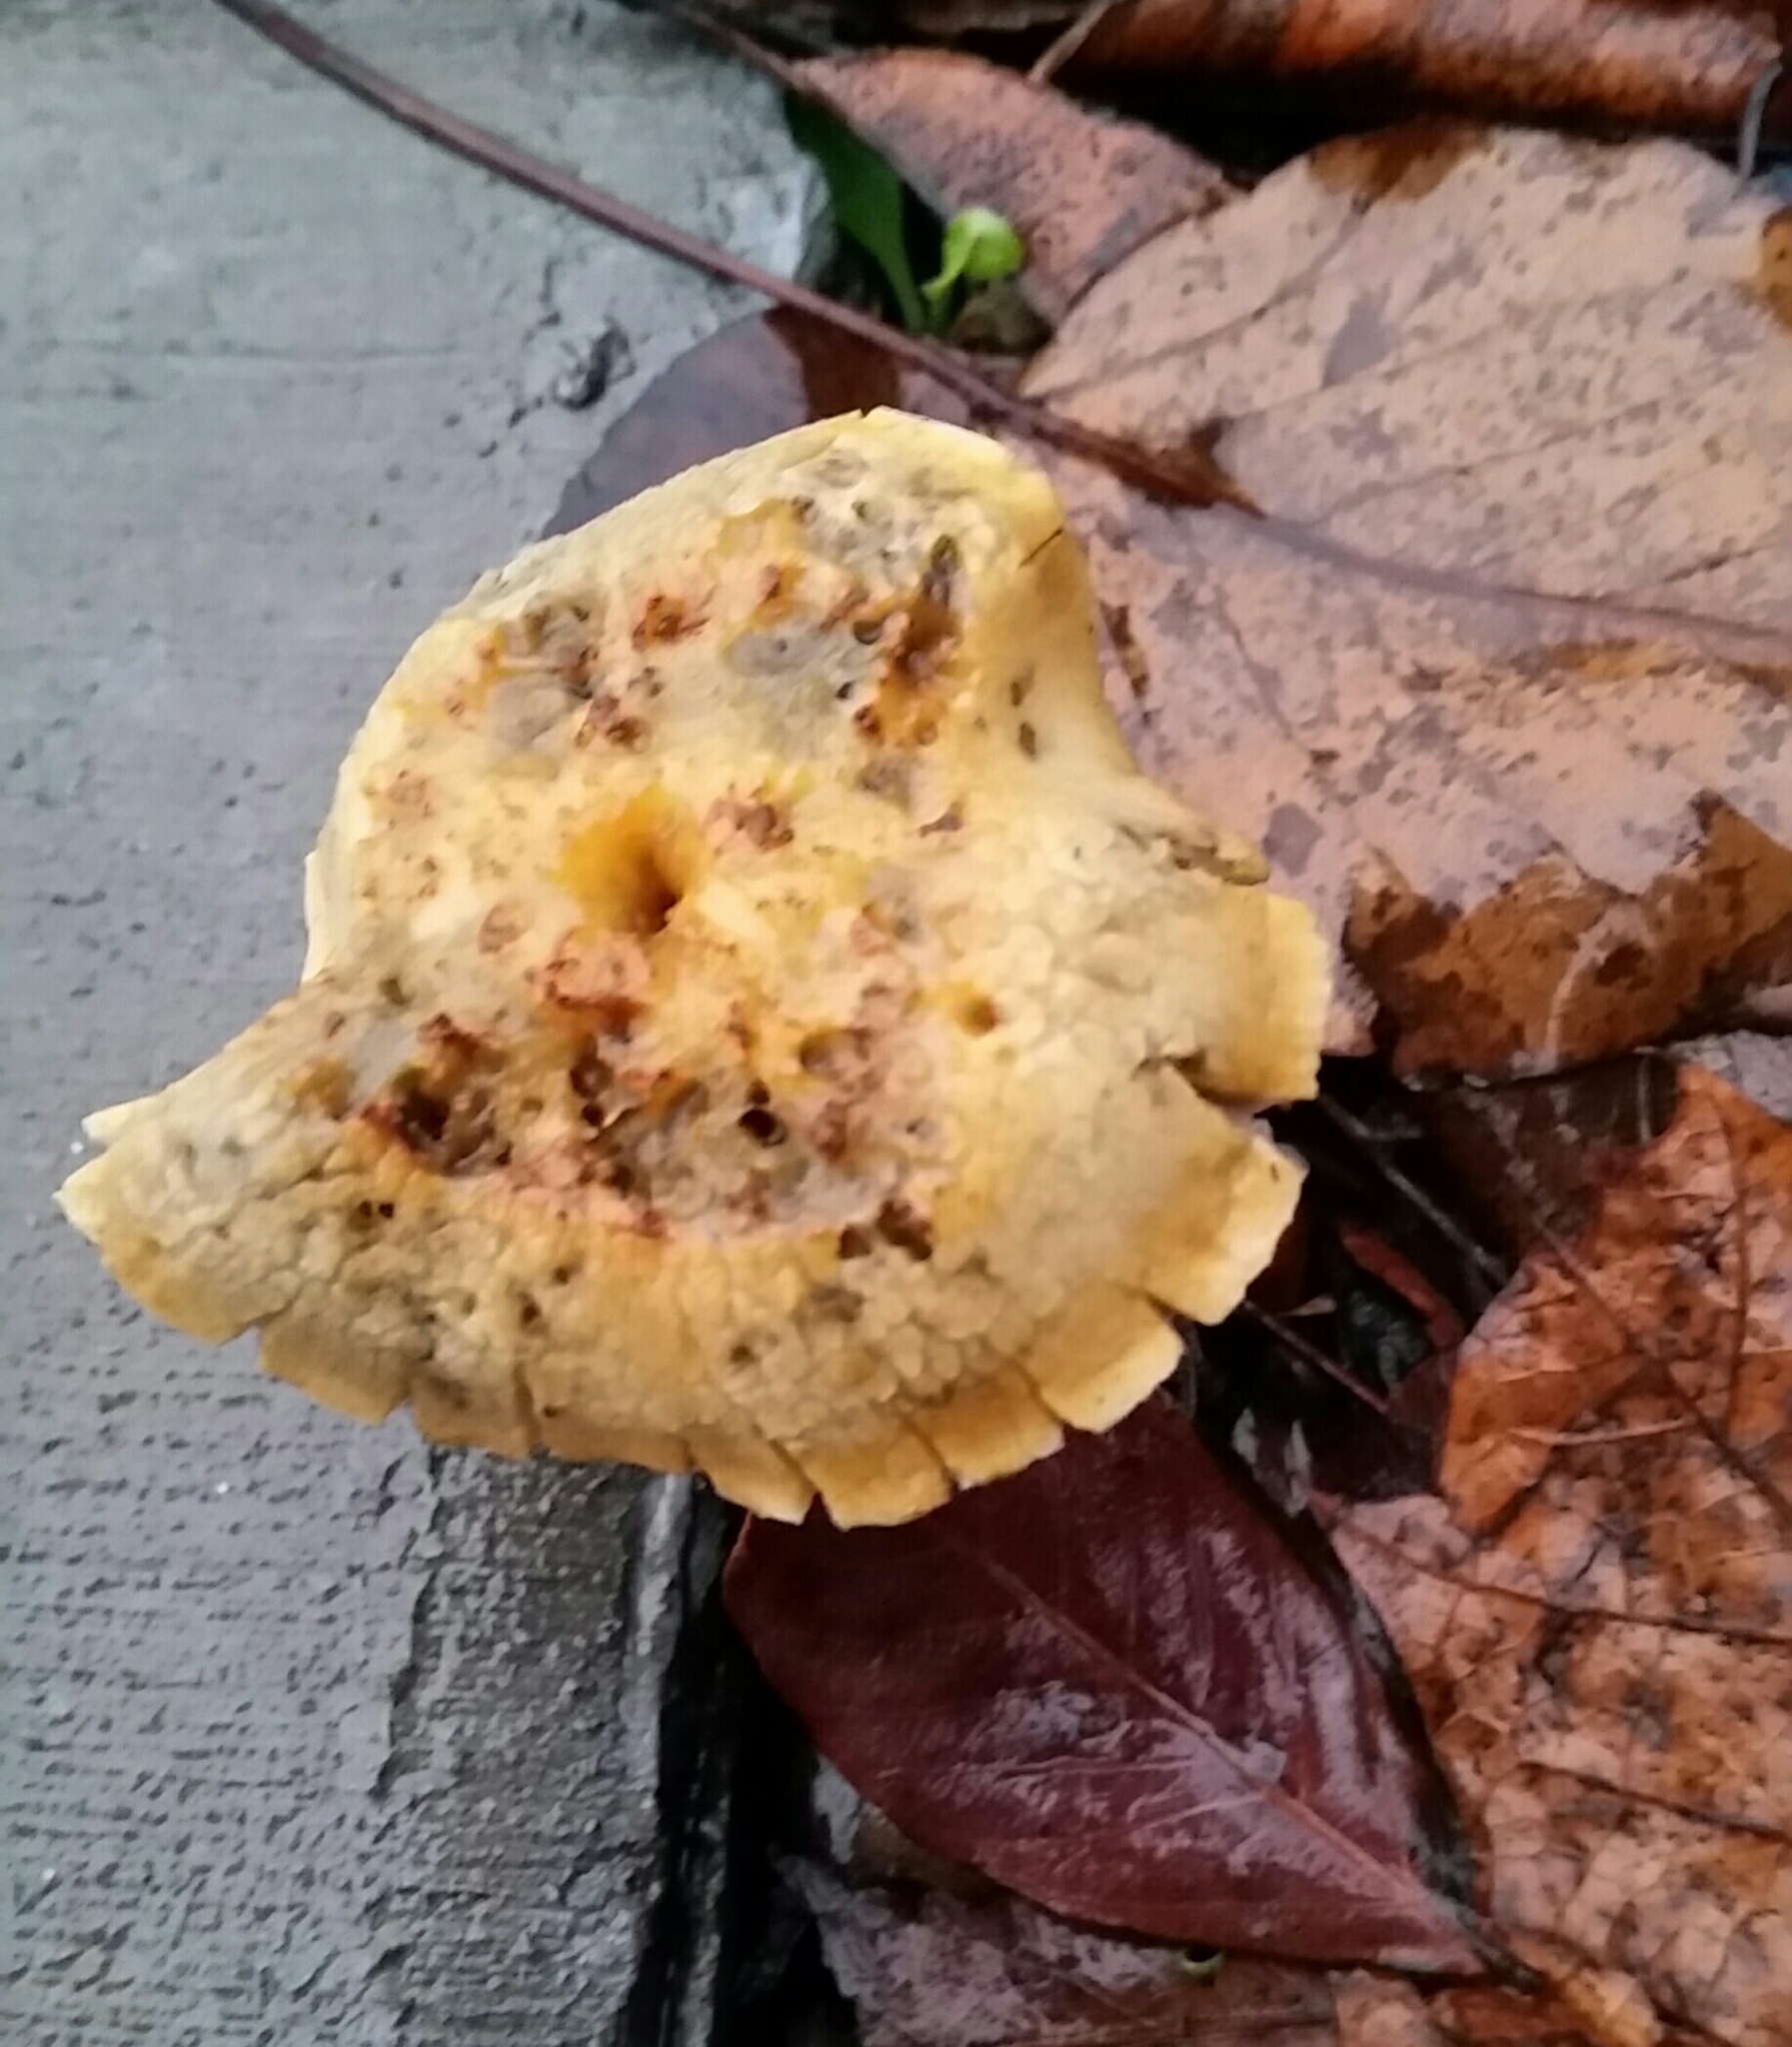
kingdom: Fungi
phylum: Basidiomycota
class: Agaricomycetes
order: Agaricales
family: Strophariaceae
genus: Leratiomyces
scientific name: Leratiomyces percevalii
